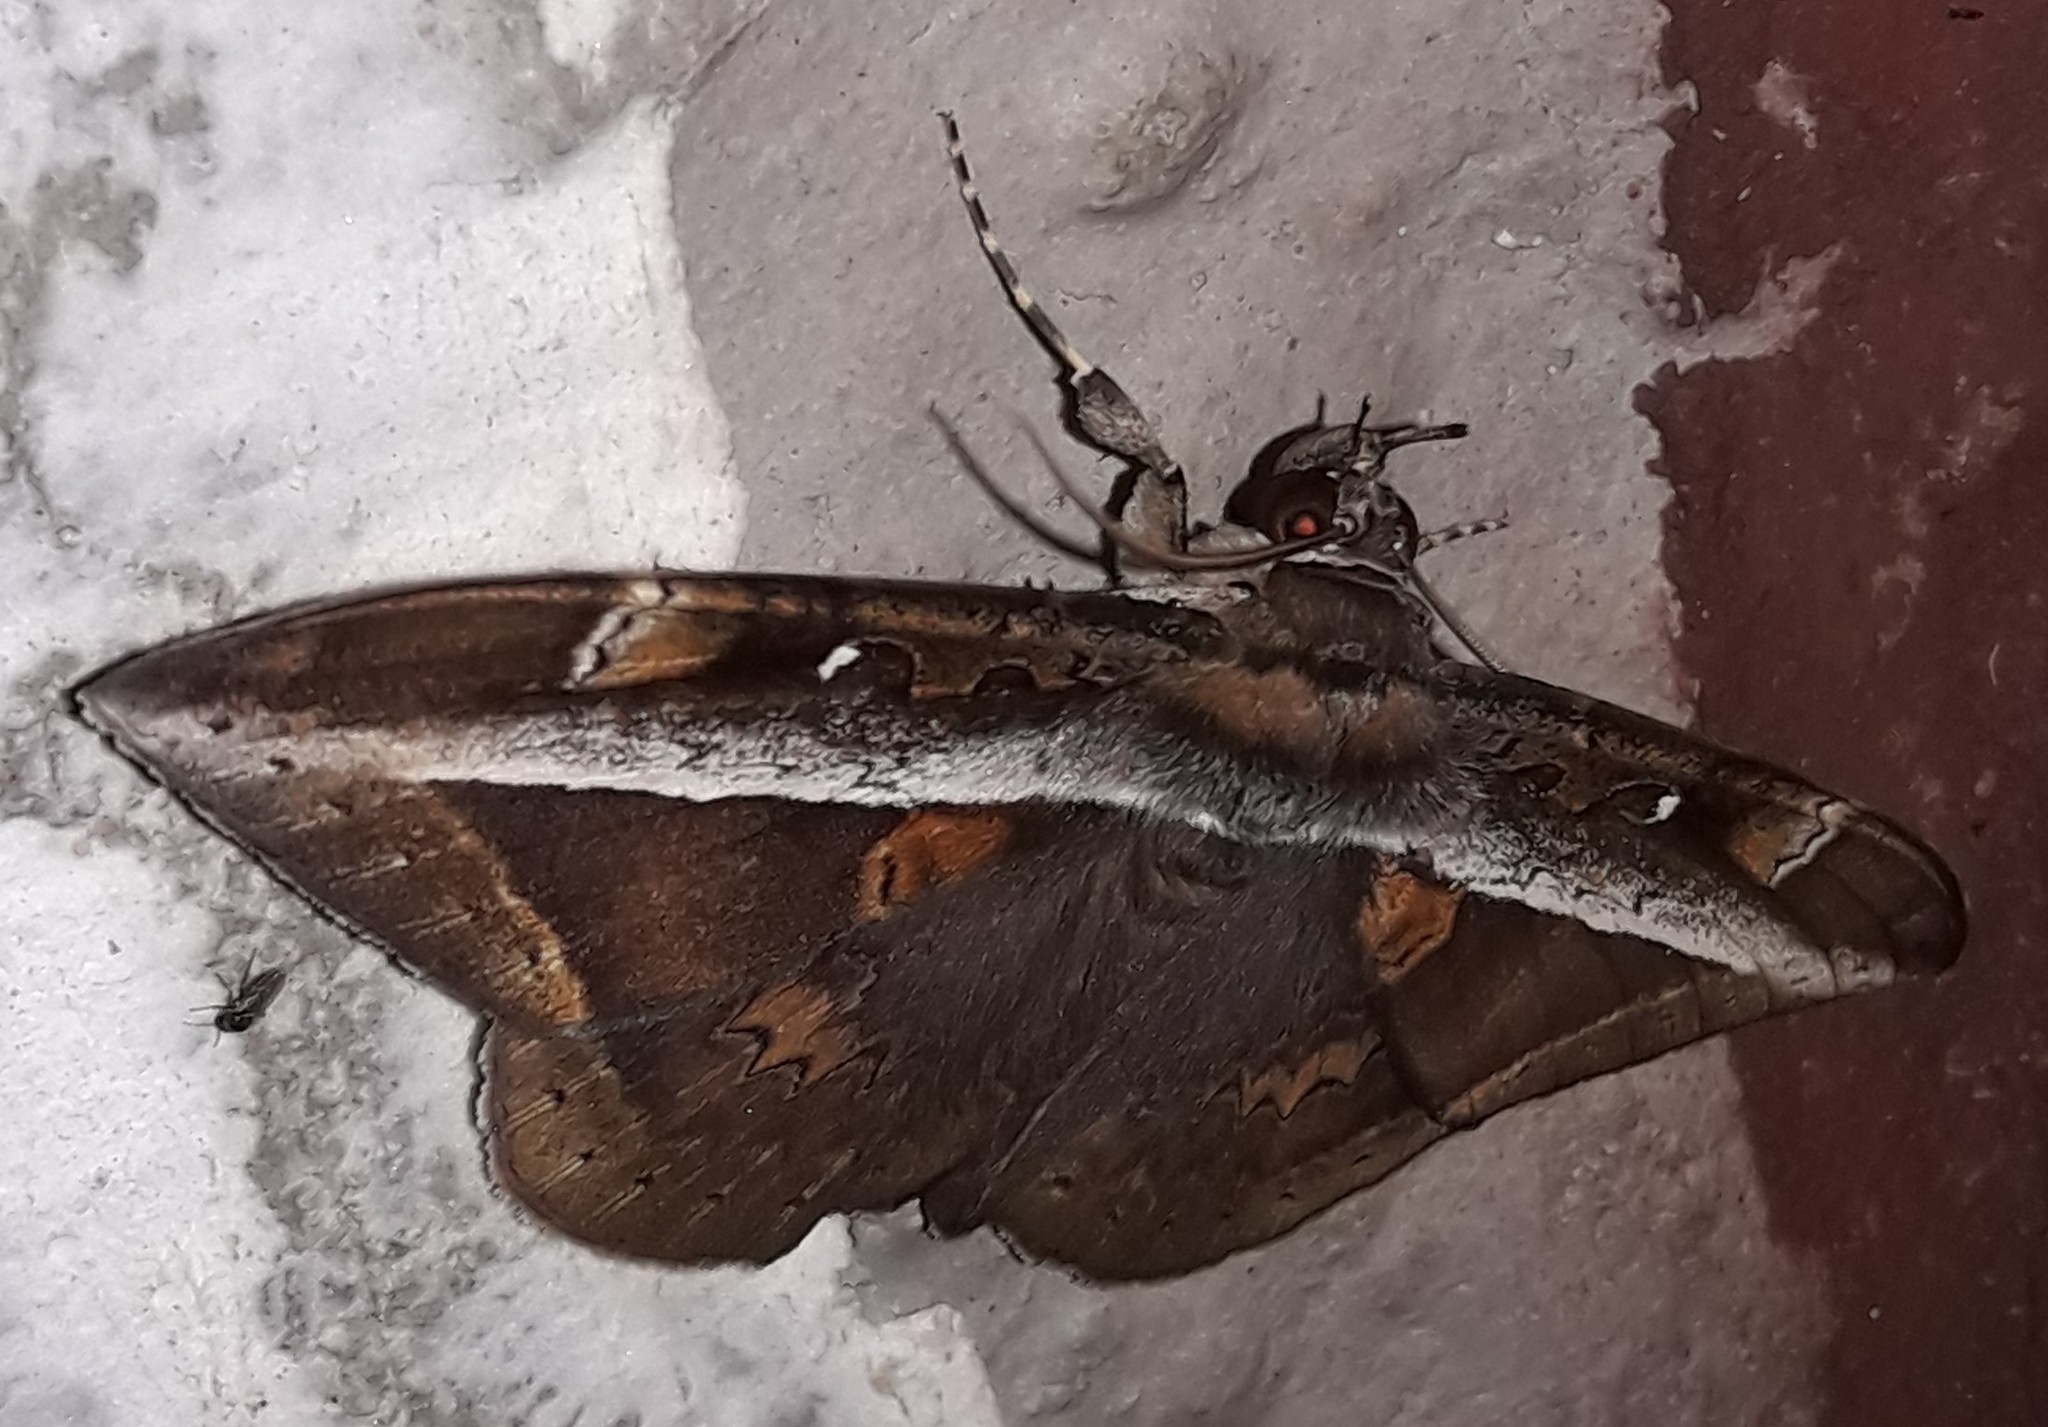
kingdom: Animalia
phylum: Arthropoda
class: Insecta
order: Lepidoptera
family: Erebidae
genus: Hemeroblemma
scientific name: Hemeroblemma opigena
